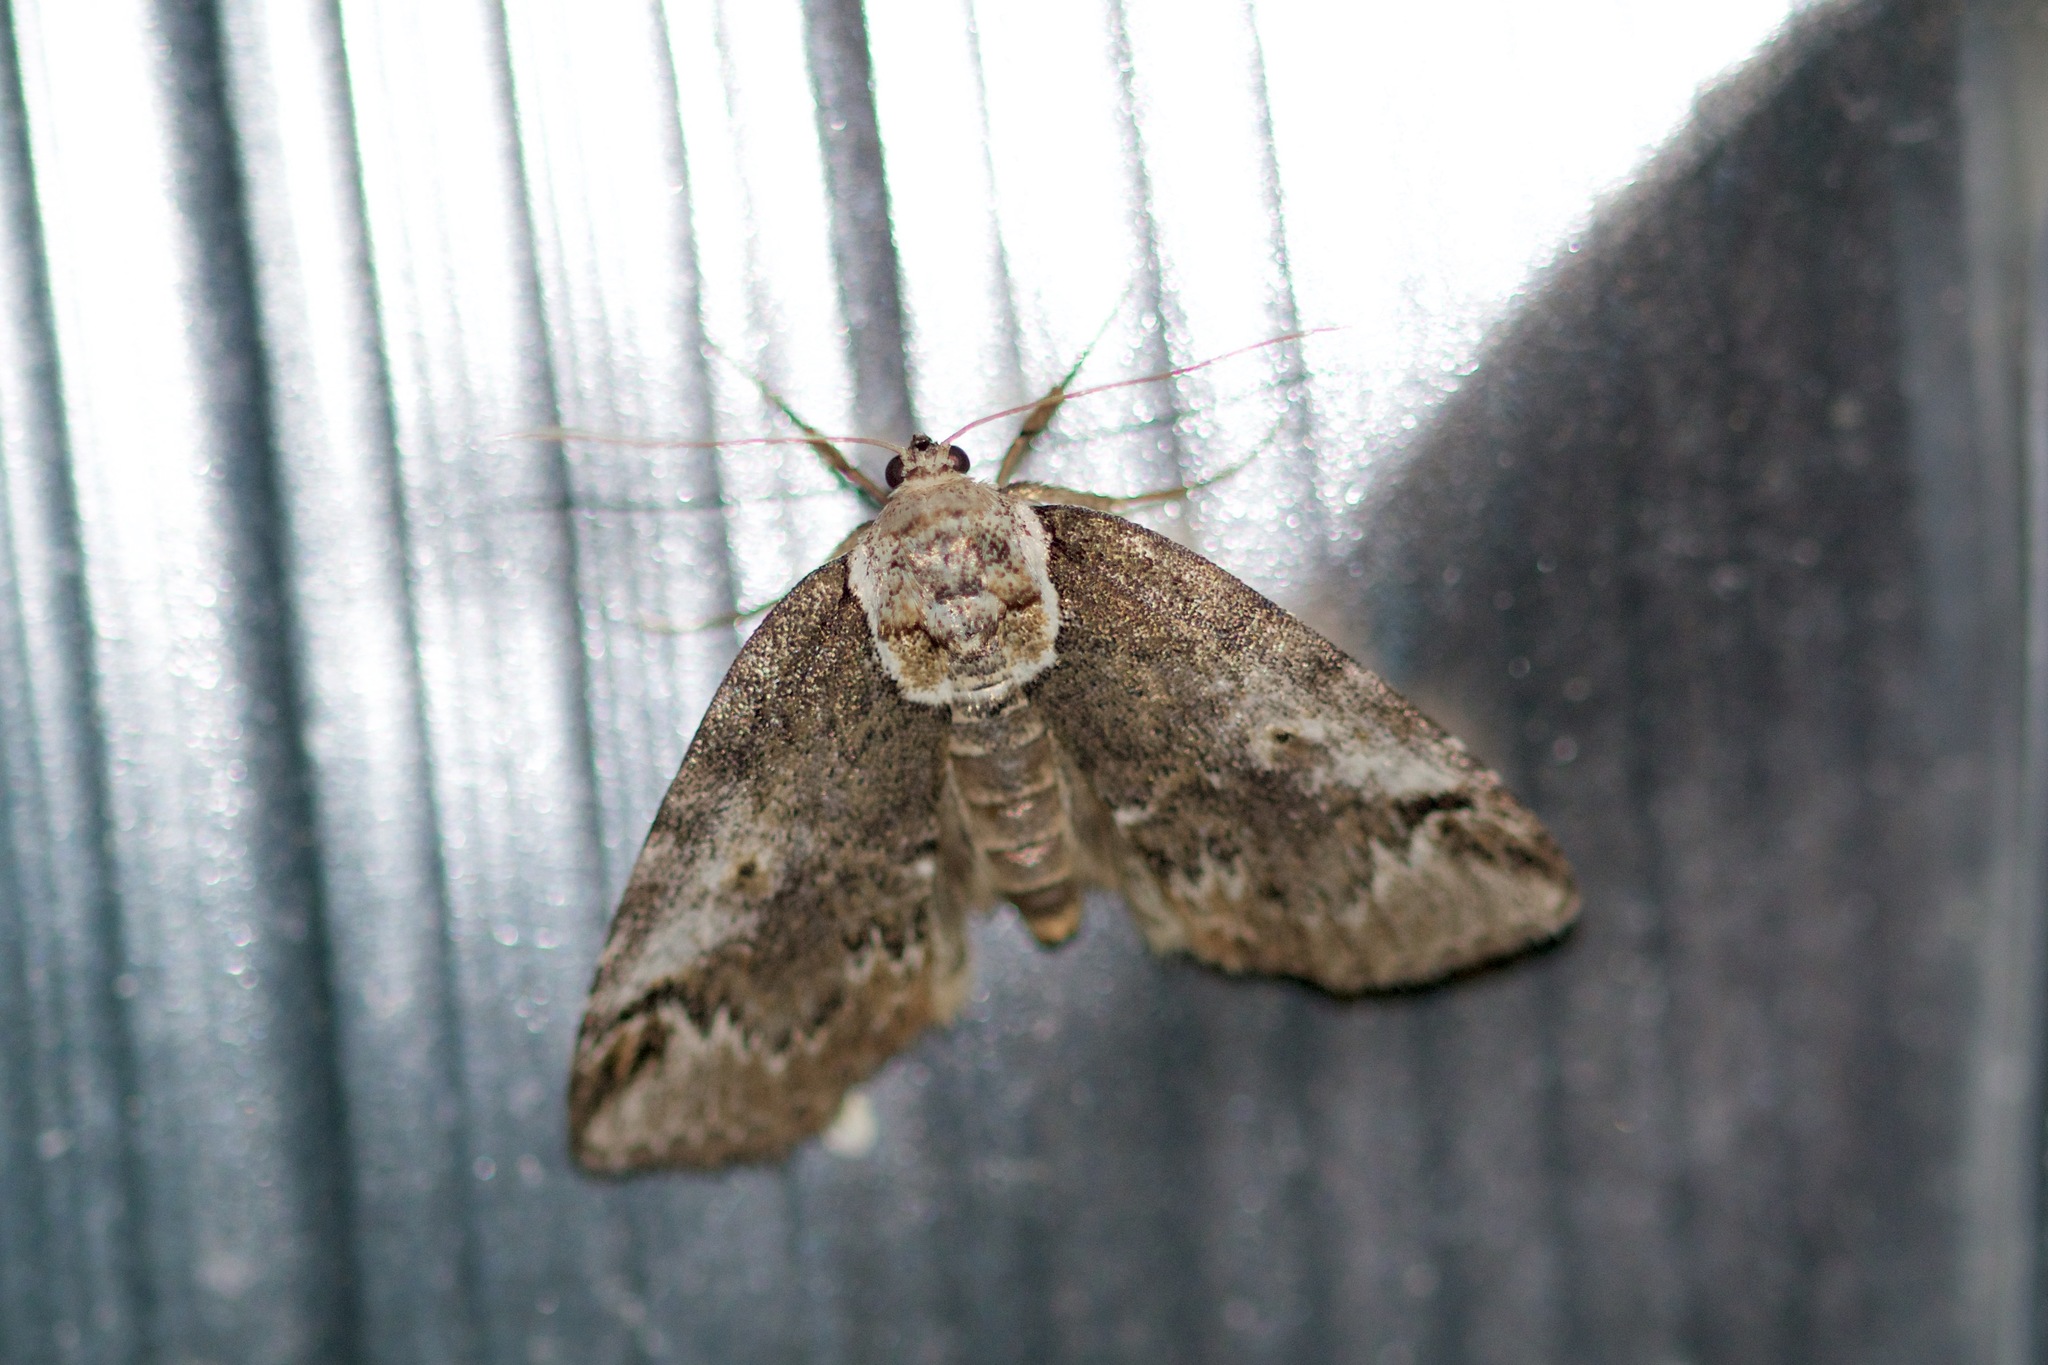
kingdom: Animalia
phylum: Arthropoda
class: Insecta
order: Lepidoptera
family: Nolidae
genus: Baileya
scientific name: Baileya ophthalmica
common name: Eyed baileya moth
